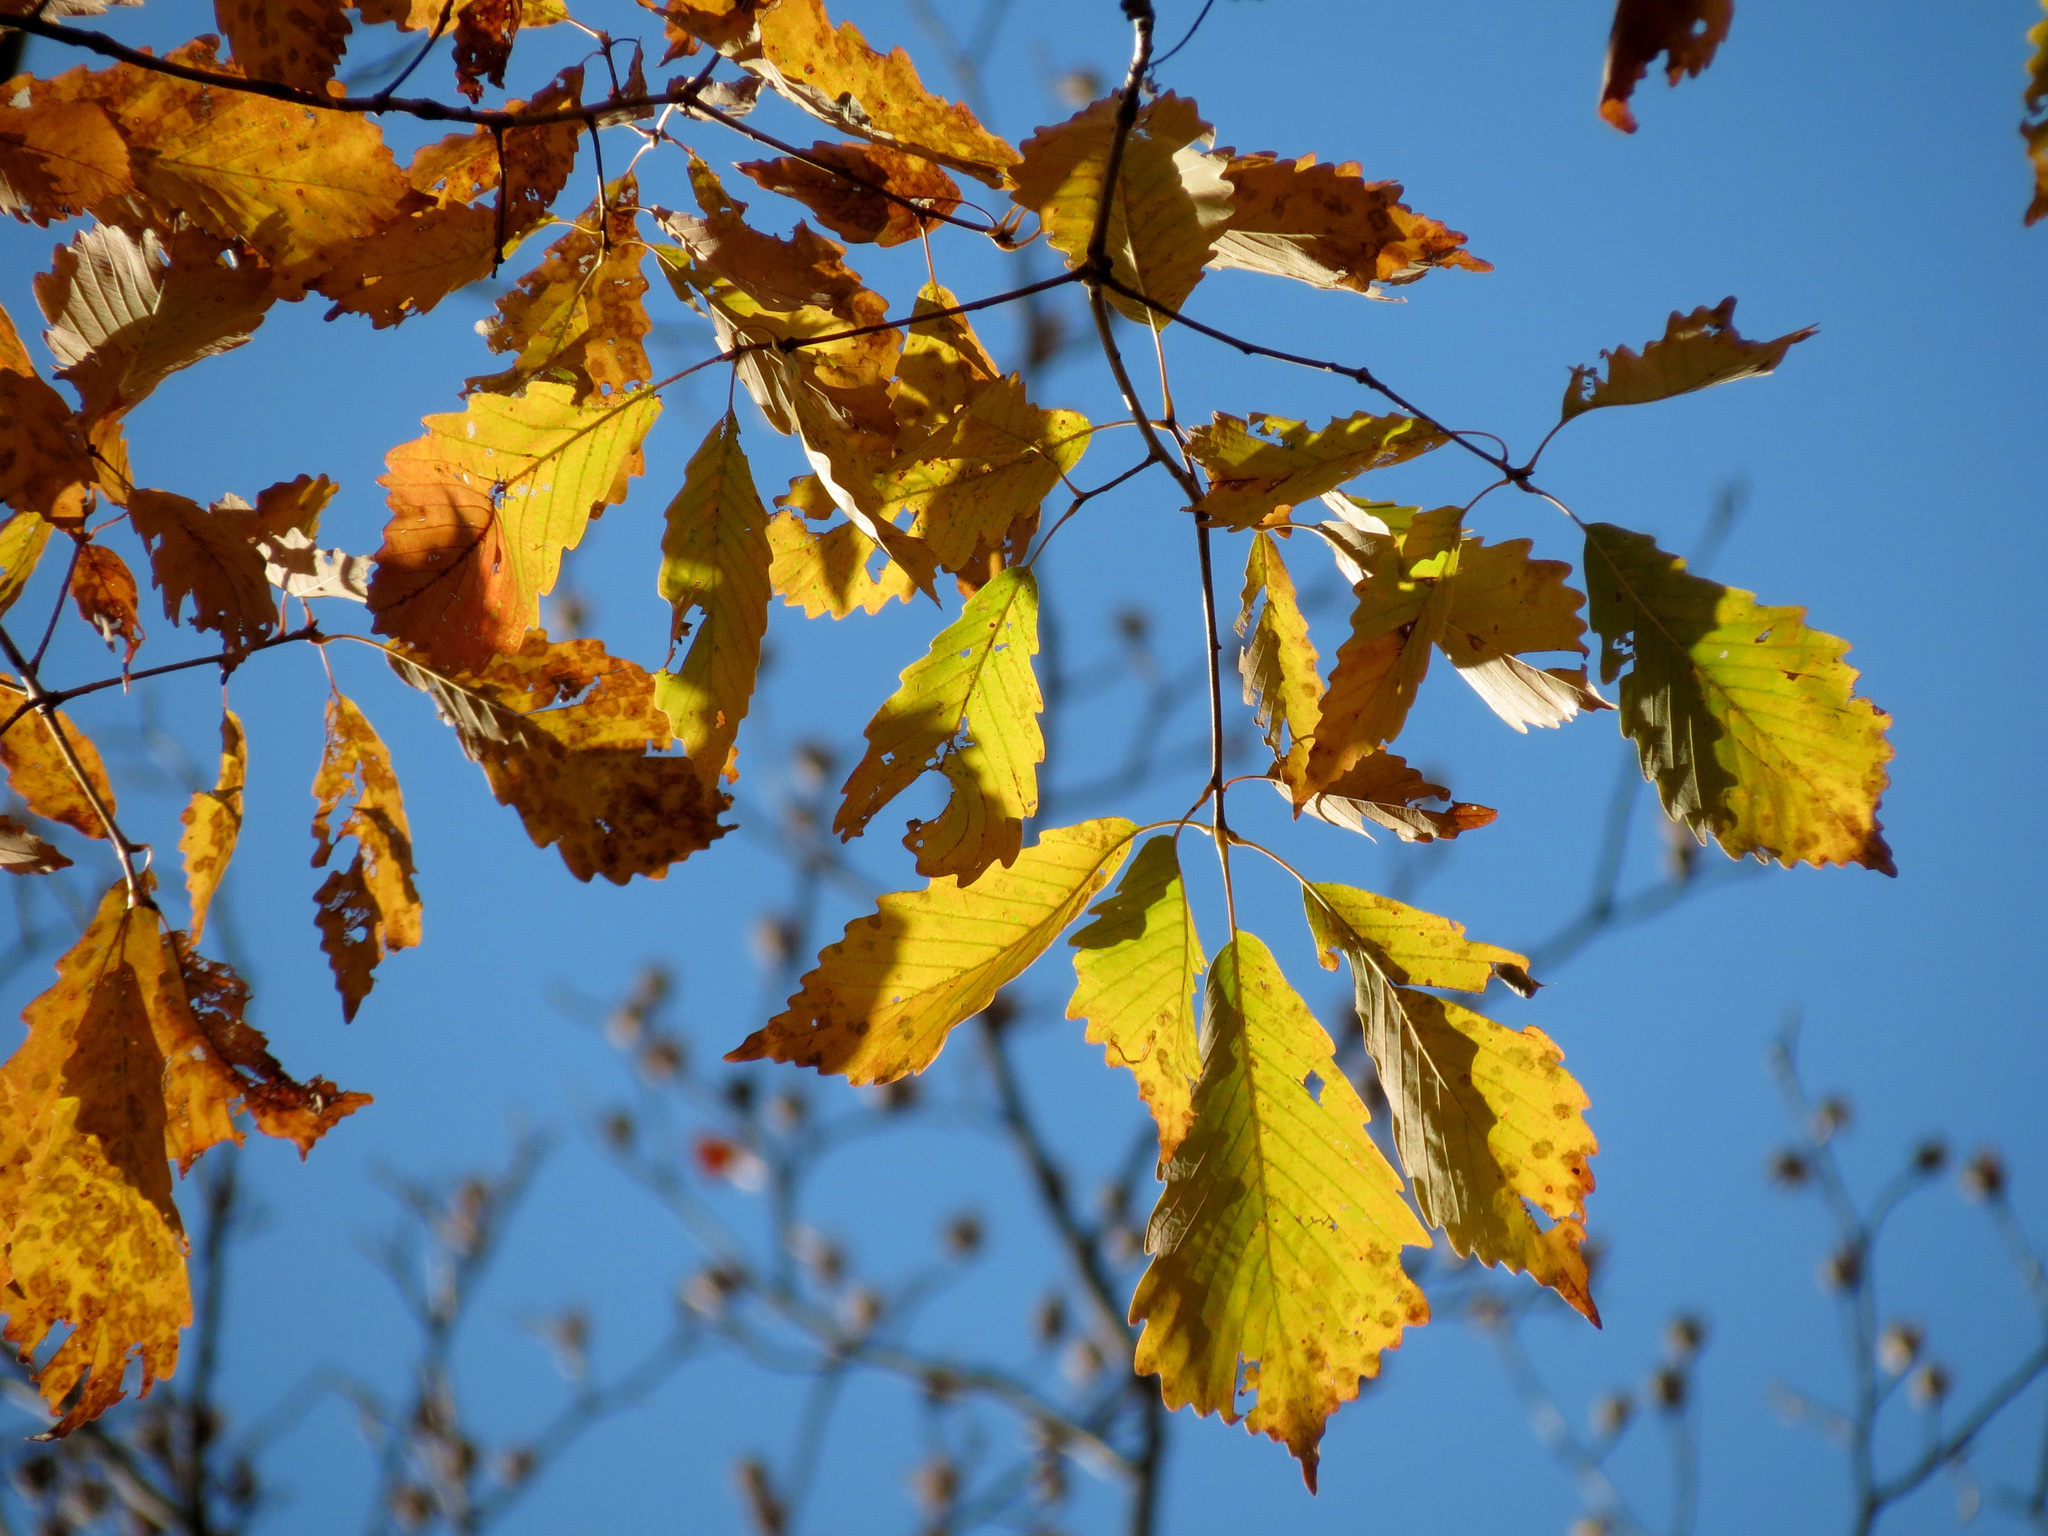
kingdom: Plantae
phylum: Tracheophyta
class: Magnoliopsida
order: Fagales
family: Fagaceae
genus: Quercus
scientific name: Quercus montana
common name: Chestnut oak
